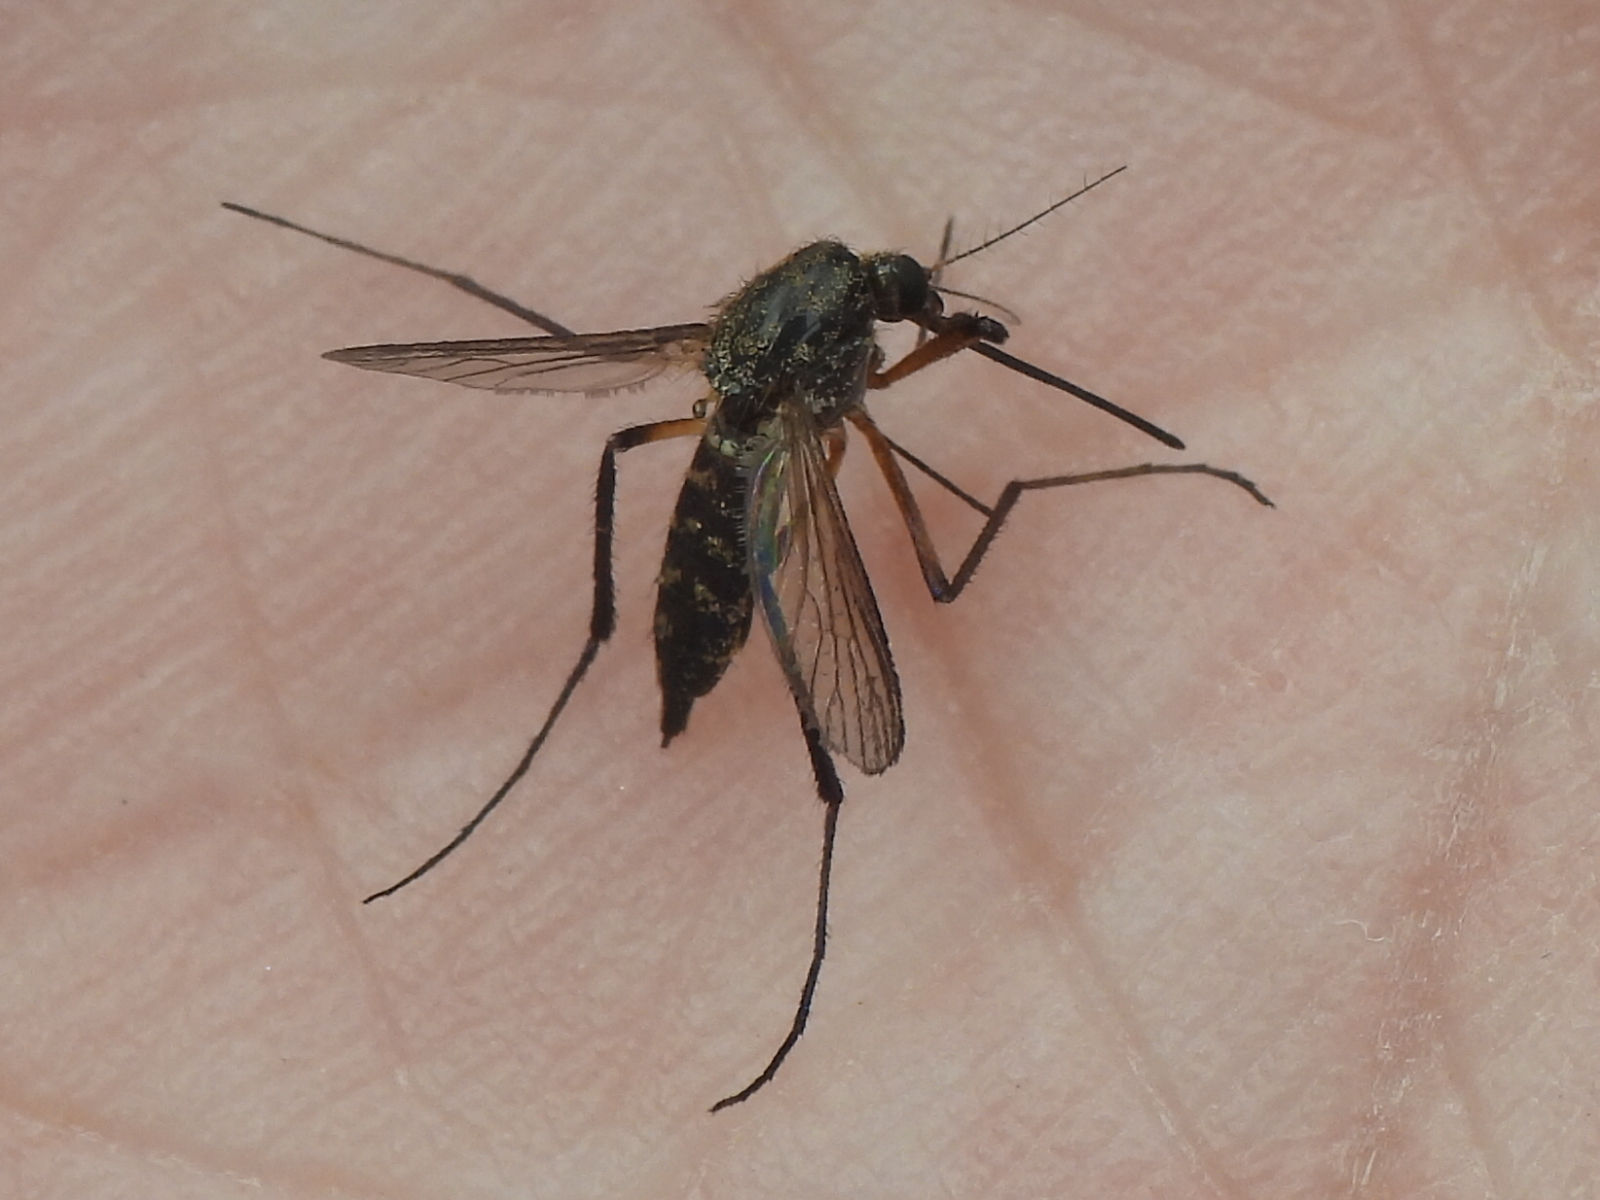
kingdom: Animalia
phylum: Arthropoda
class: Insecta
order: Diptera
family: Culicidae
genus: Psorophora
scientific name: Psorophora cyanescens
